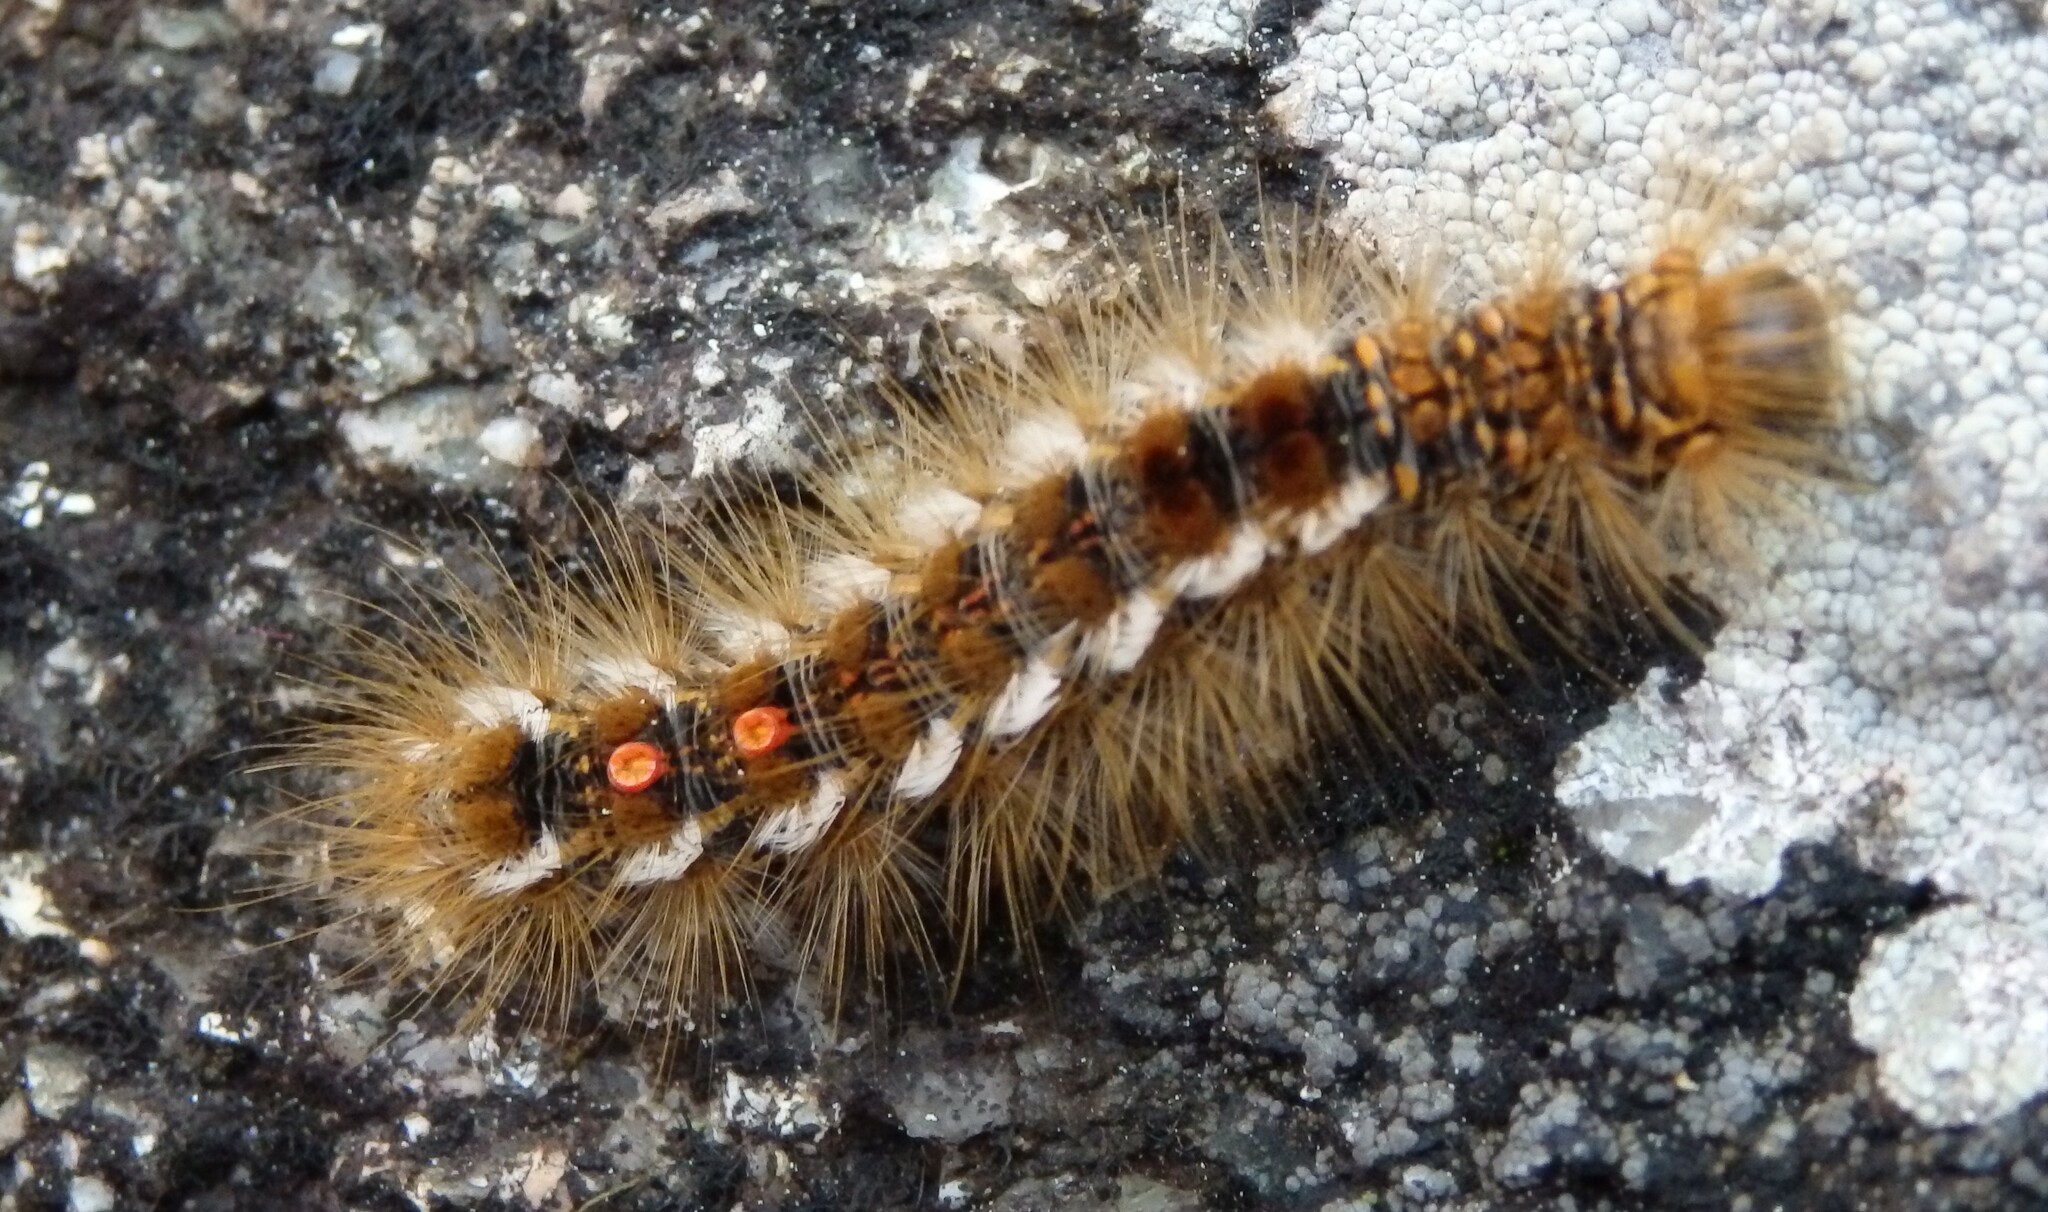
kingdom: Animalia
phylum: Arthropoda
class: Insecta
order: Lepidoptera
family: Erebidae
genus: Euproctis
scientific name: Euproctis chrysorrhoea
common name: Brown-tail
